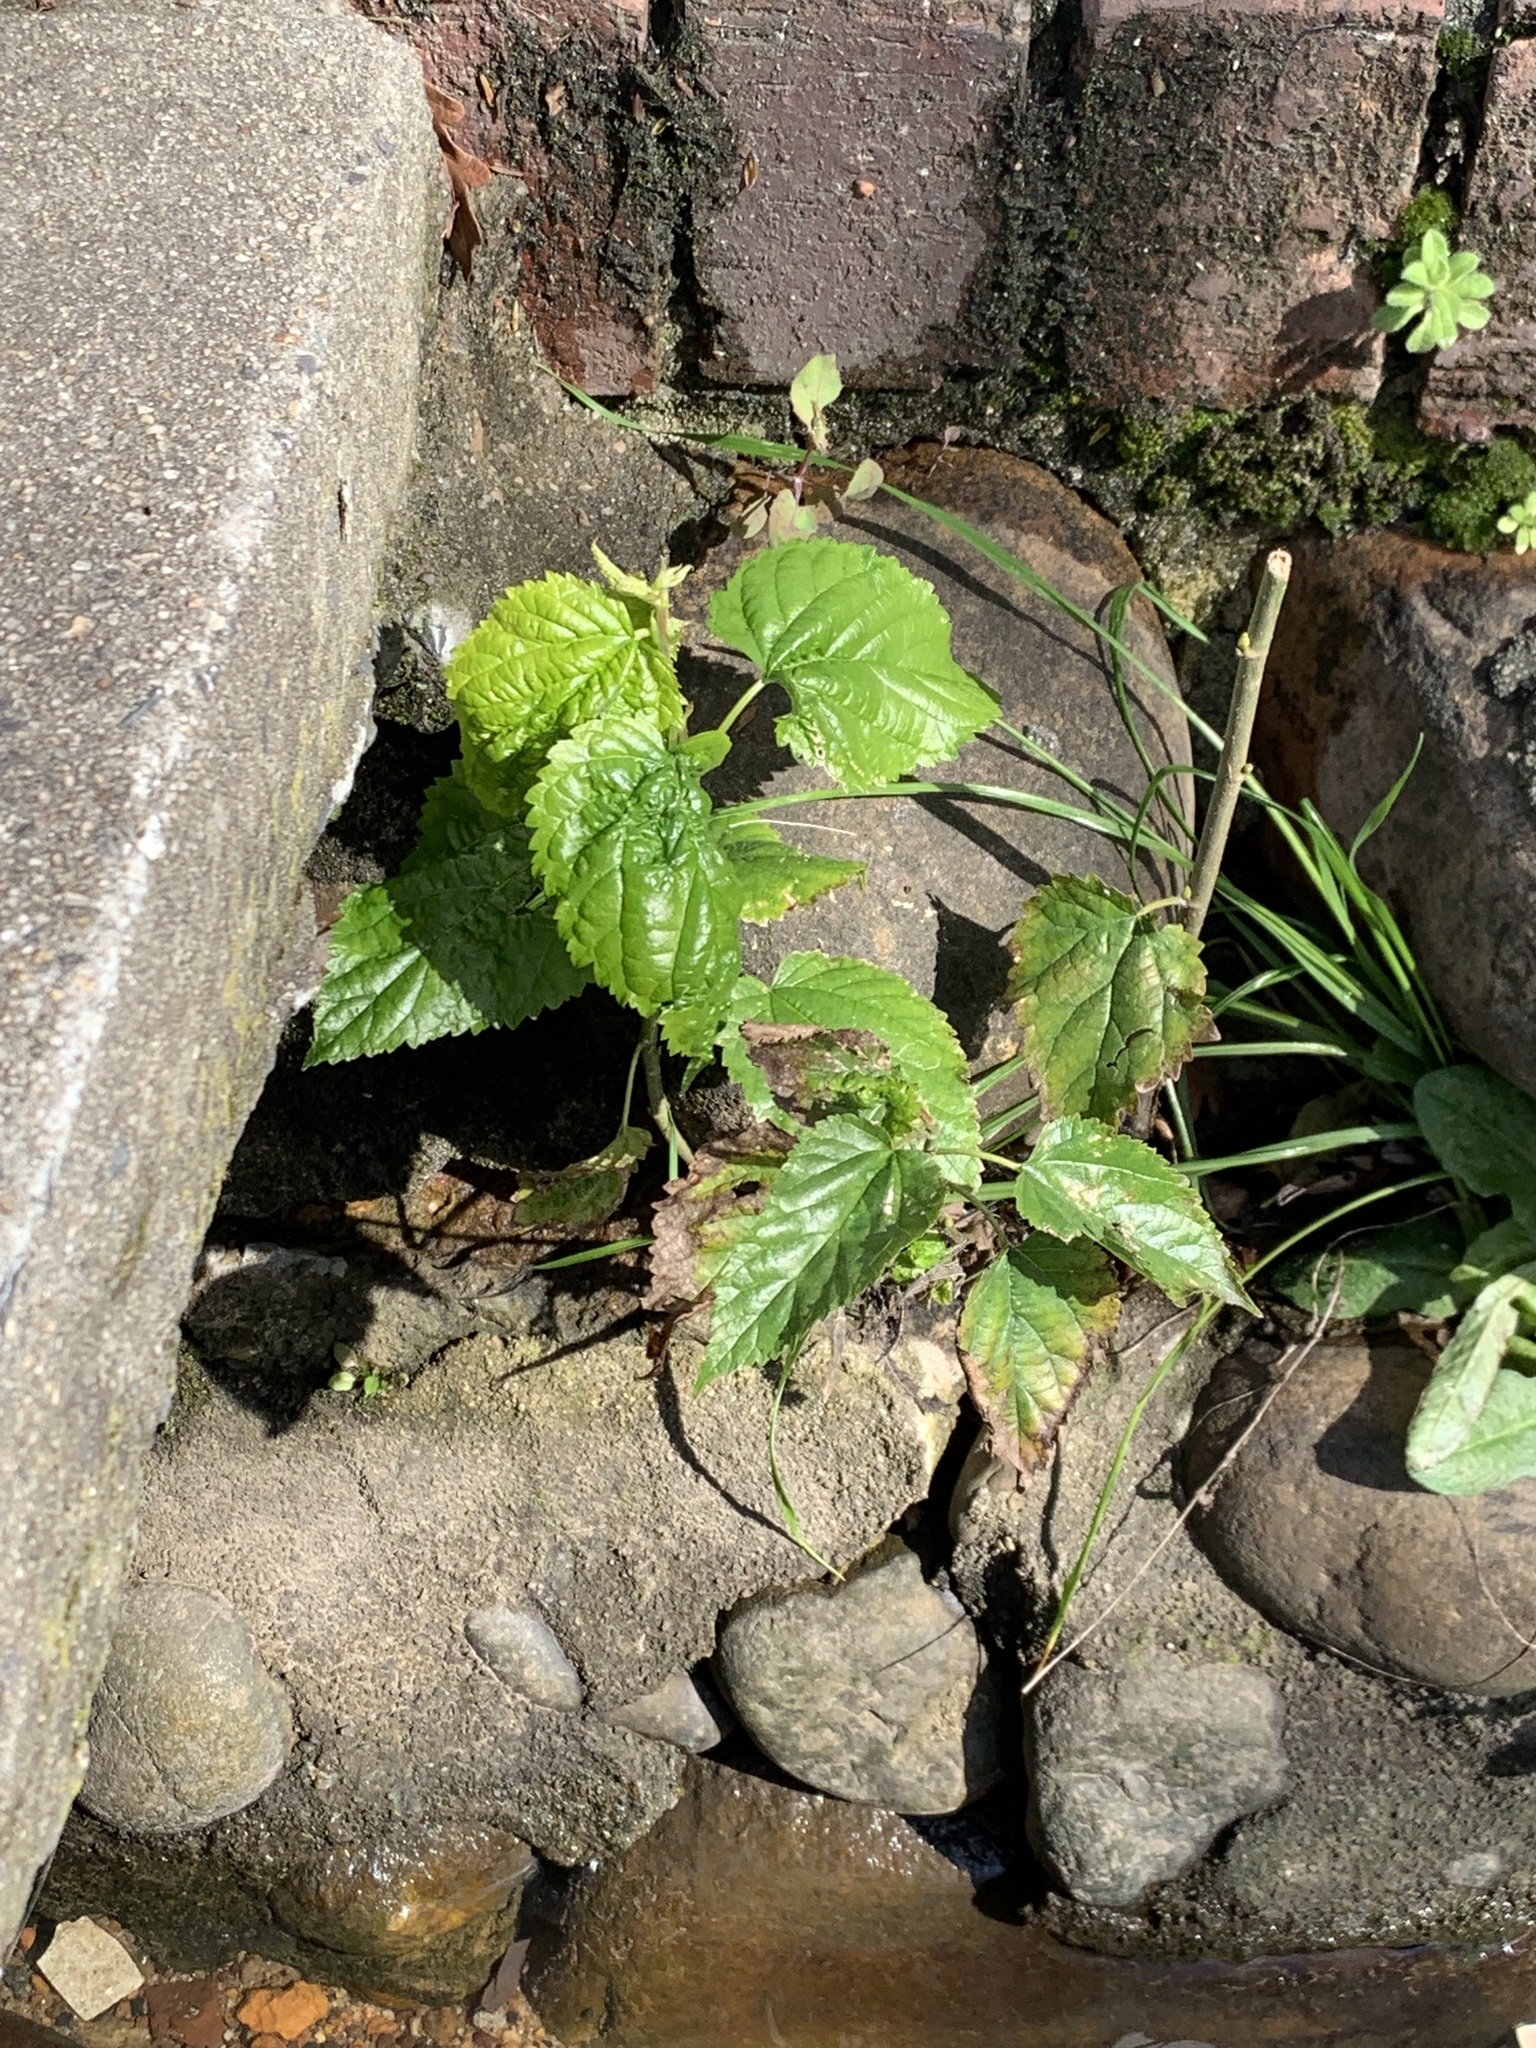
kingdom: Plantae
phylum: Tracheophyta
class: Magnoliopsida
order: Rosales
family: Moraceae
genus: Morus
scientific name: Morus alba
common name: White mulberry
